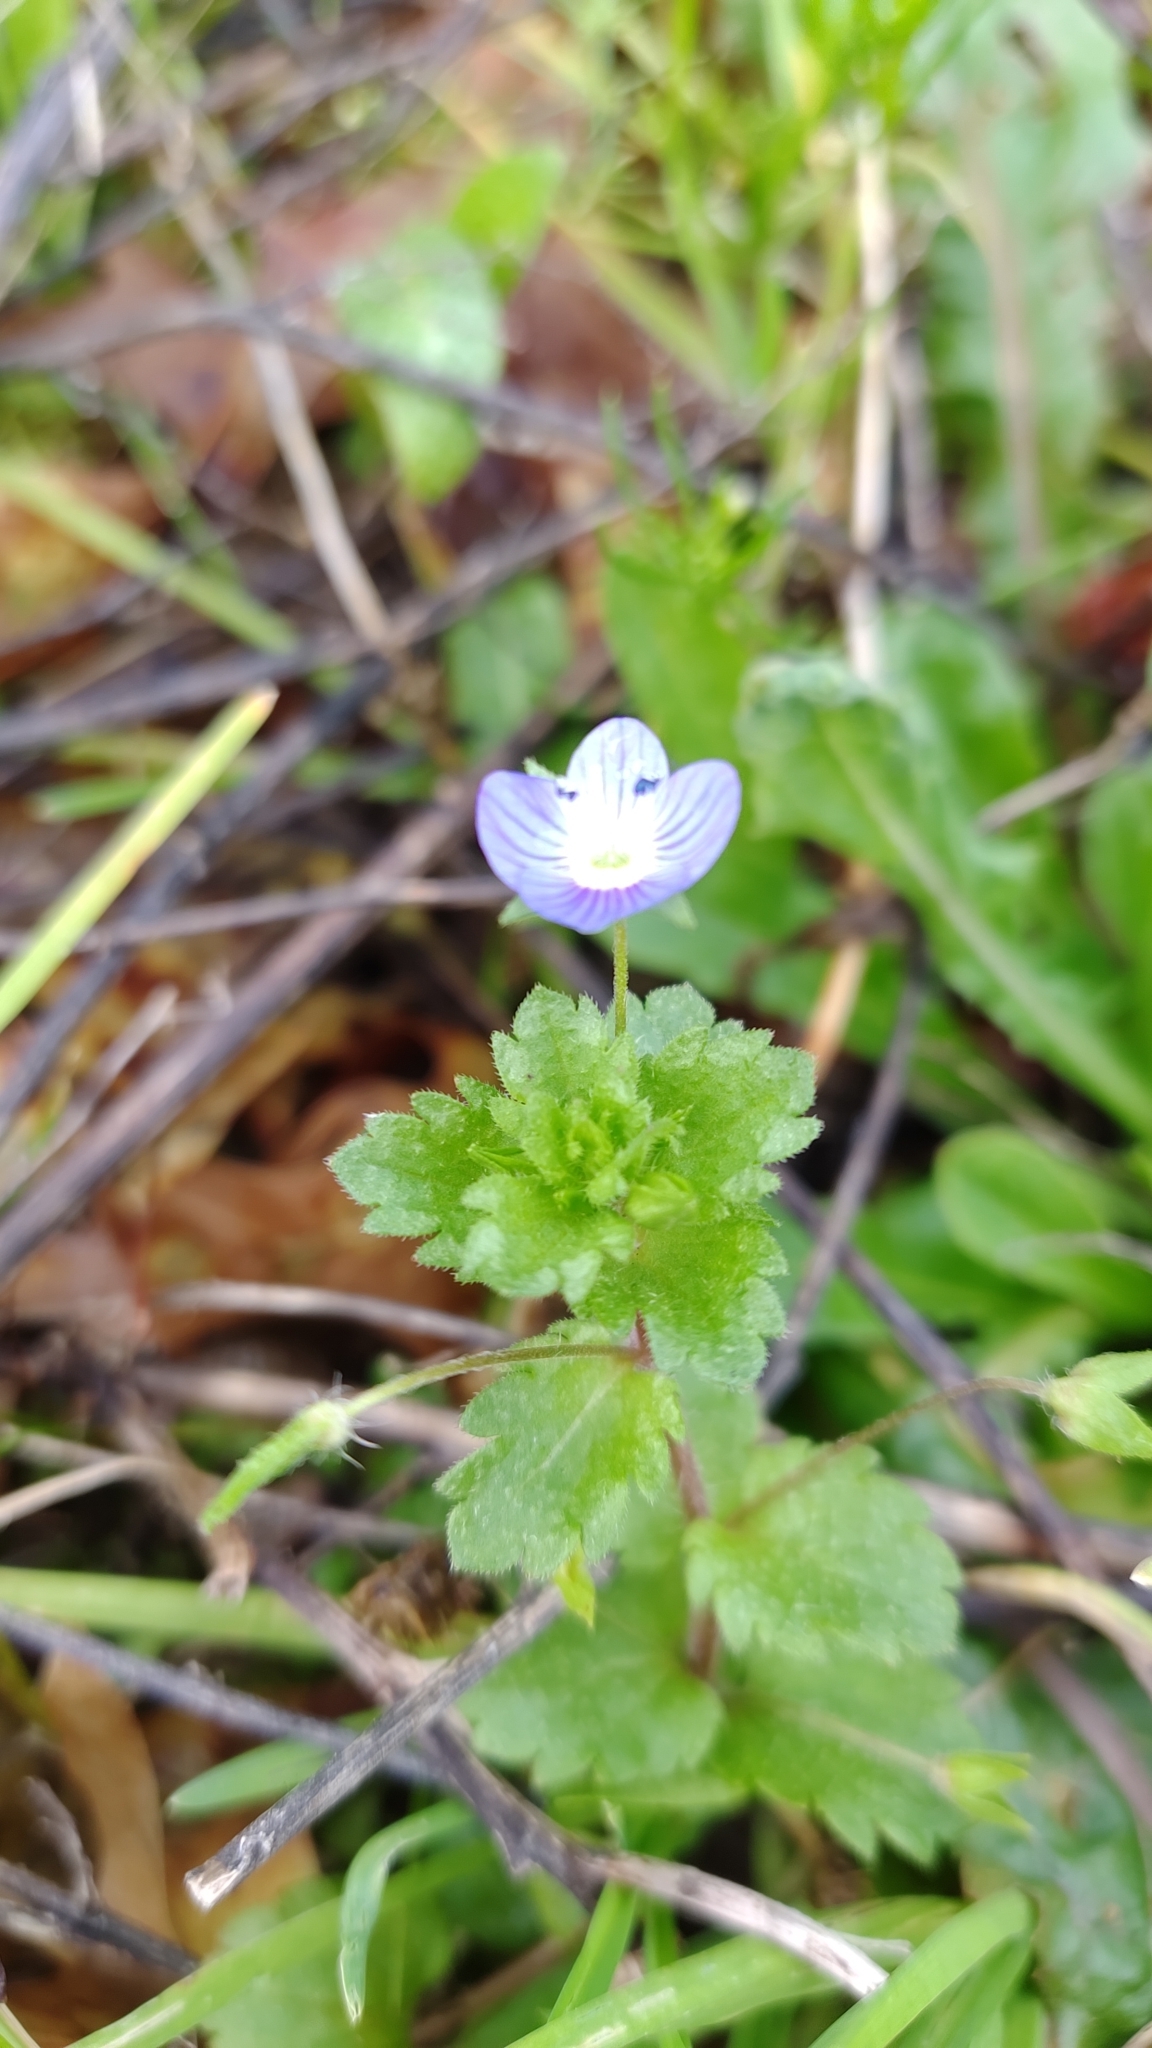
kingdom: Plantae
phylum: Tracheophyta
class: Magnoliopsida
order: Lamiales
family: Plantaginaceae
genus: Veronica
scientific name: Veronica persica
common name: Common field-speedwell
